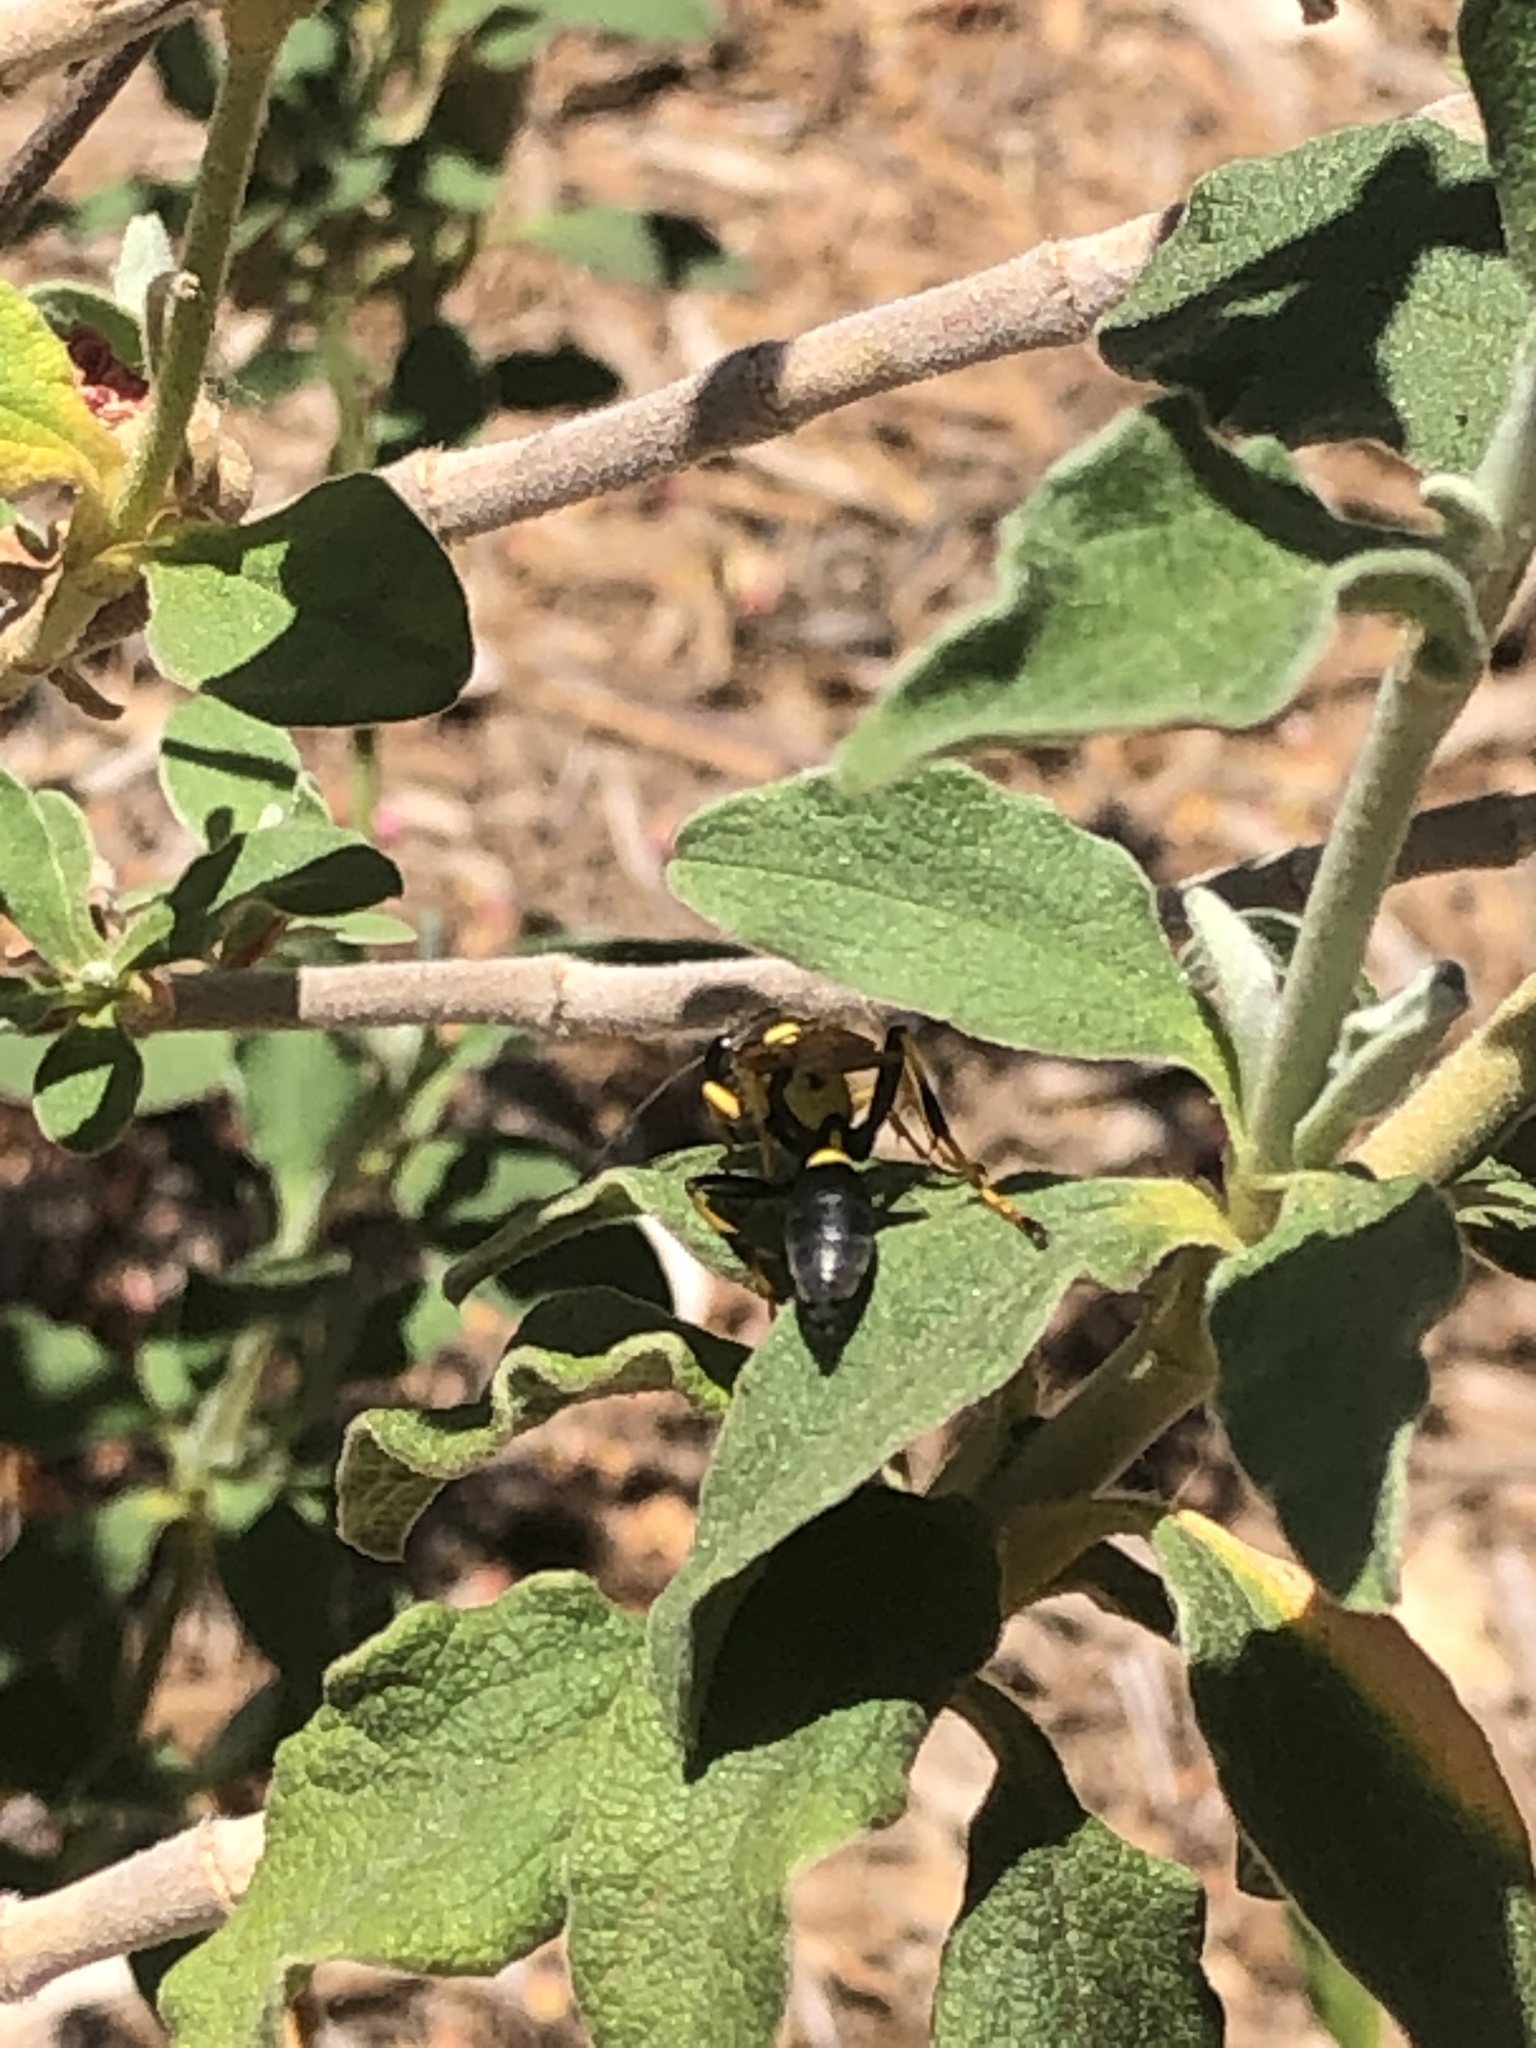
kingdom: Animalia
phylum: Arthropoda
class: Insecta
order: Hymenoptera
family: Sphecidae
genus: Sceliphron
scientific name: Sceliphron caementarium
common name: Mud dauber
